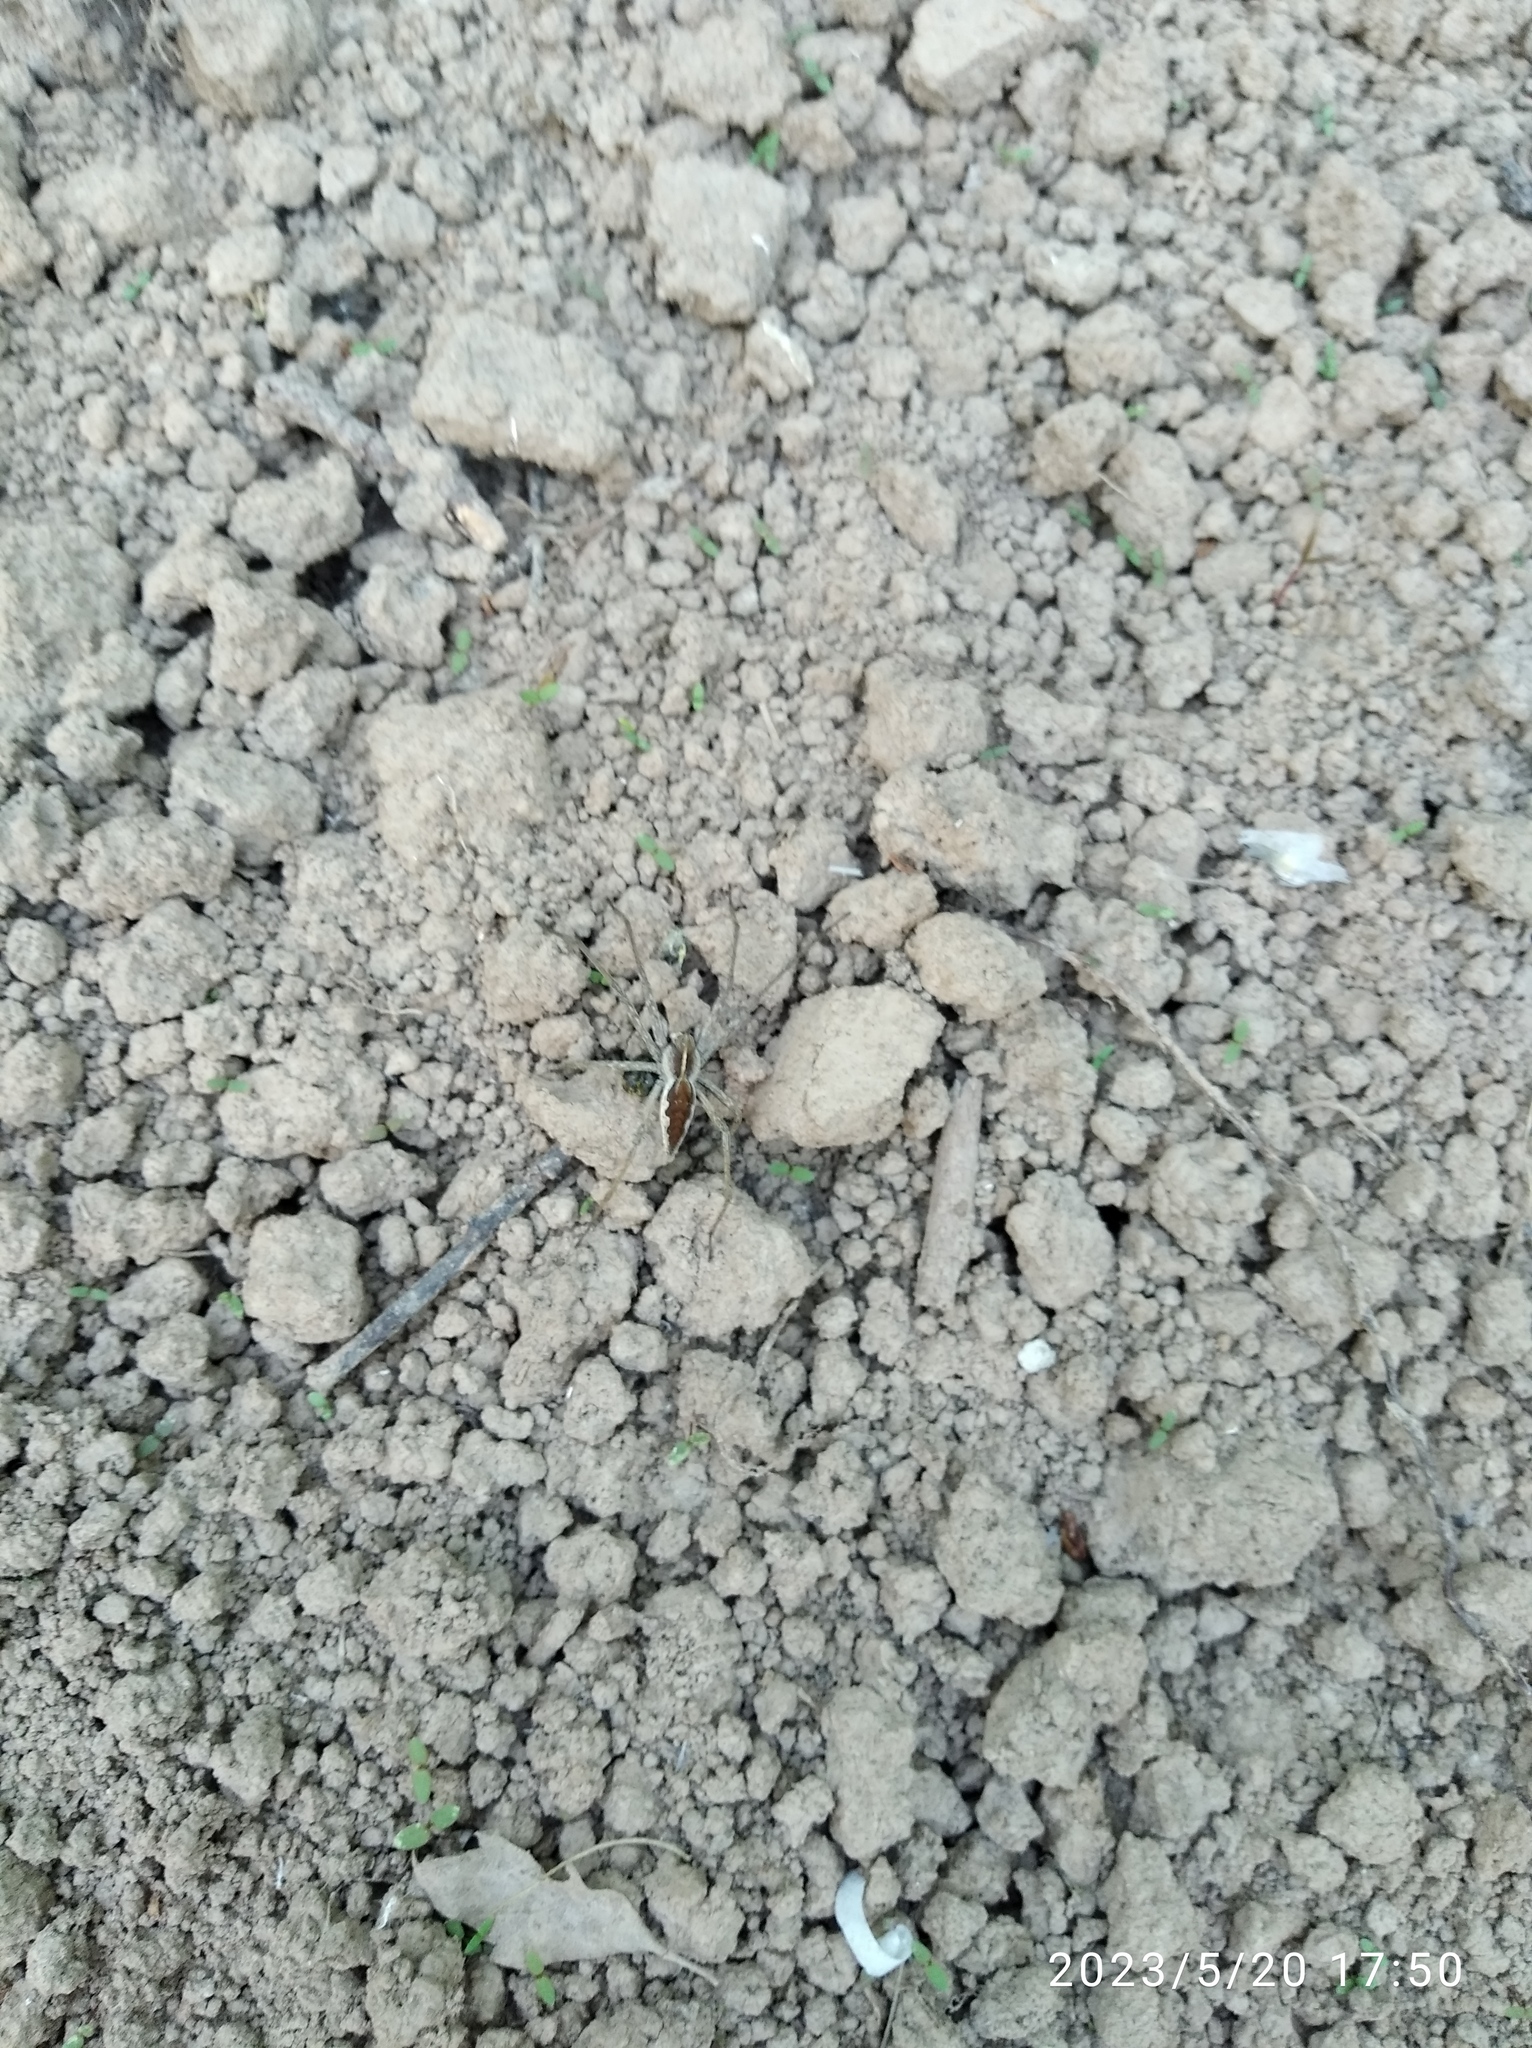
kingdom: Animalia
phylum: Arthropoda
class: Arachnida
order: Araneae
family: Pisauridae
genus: Pisaura
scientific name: Pisaura mirabilis
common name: Tent spider
